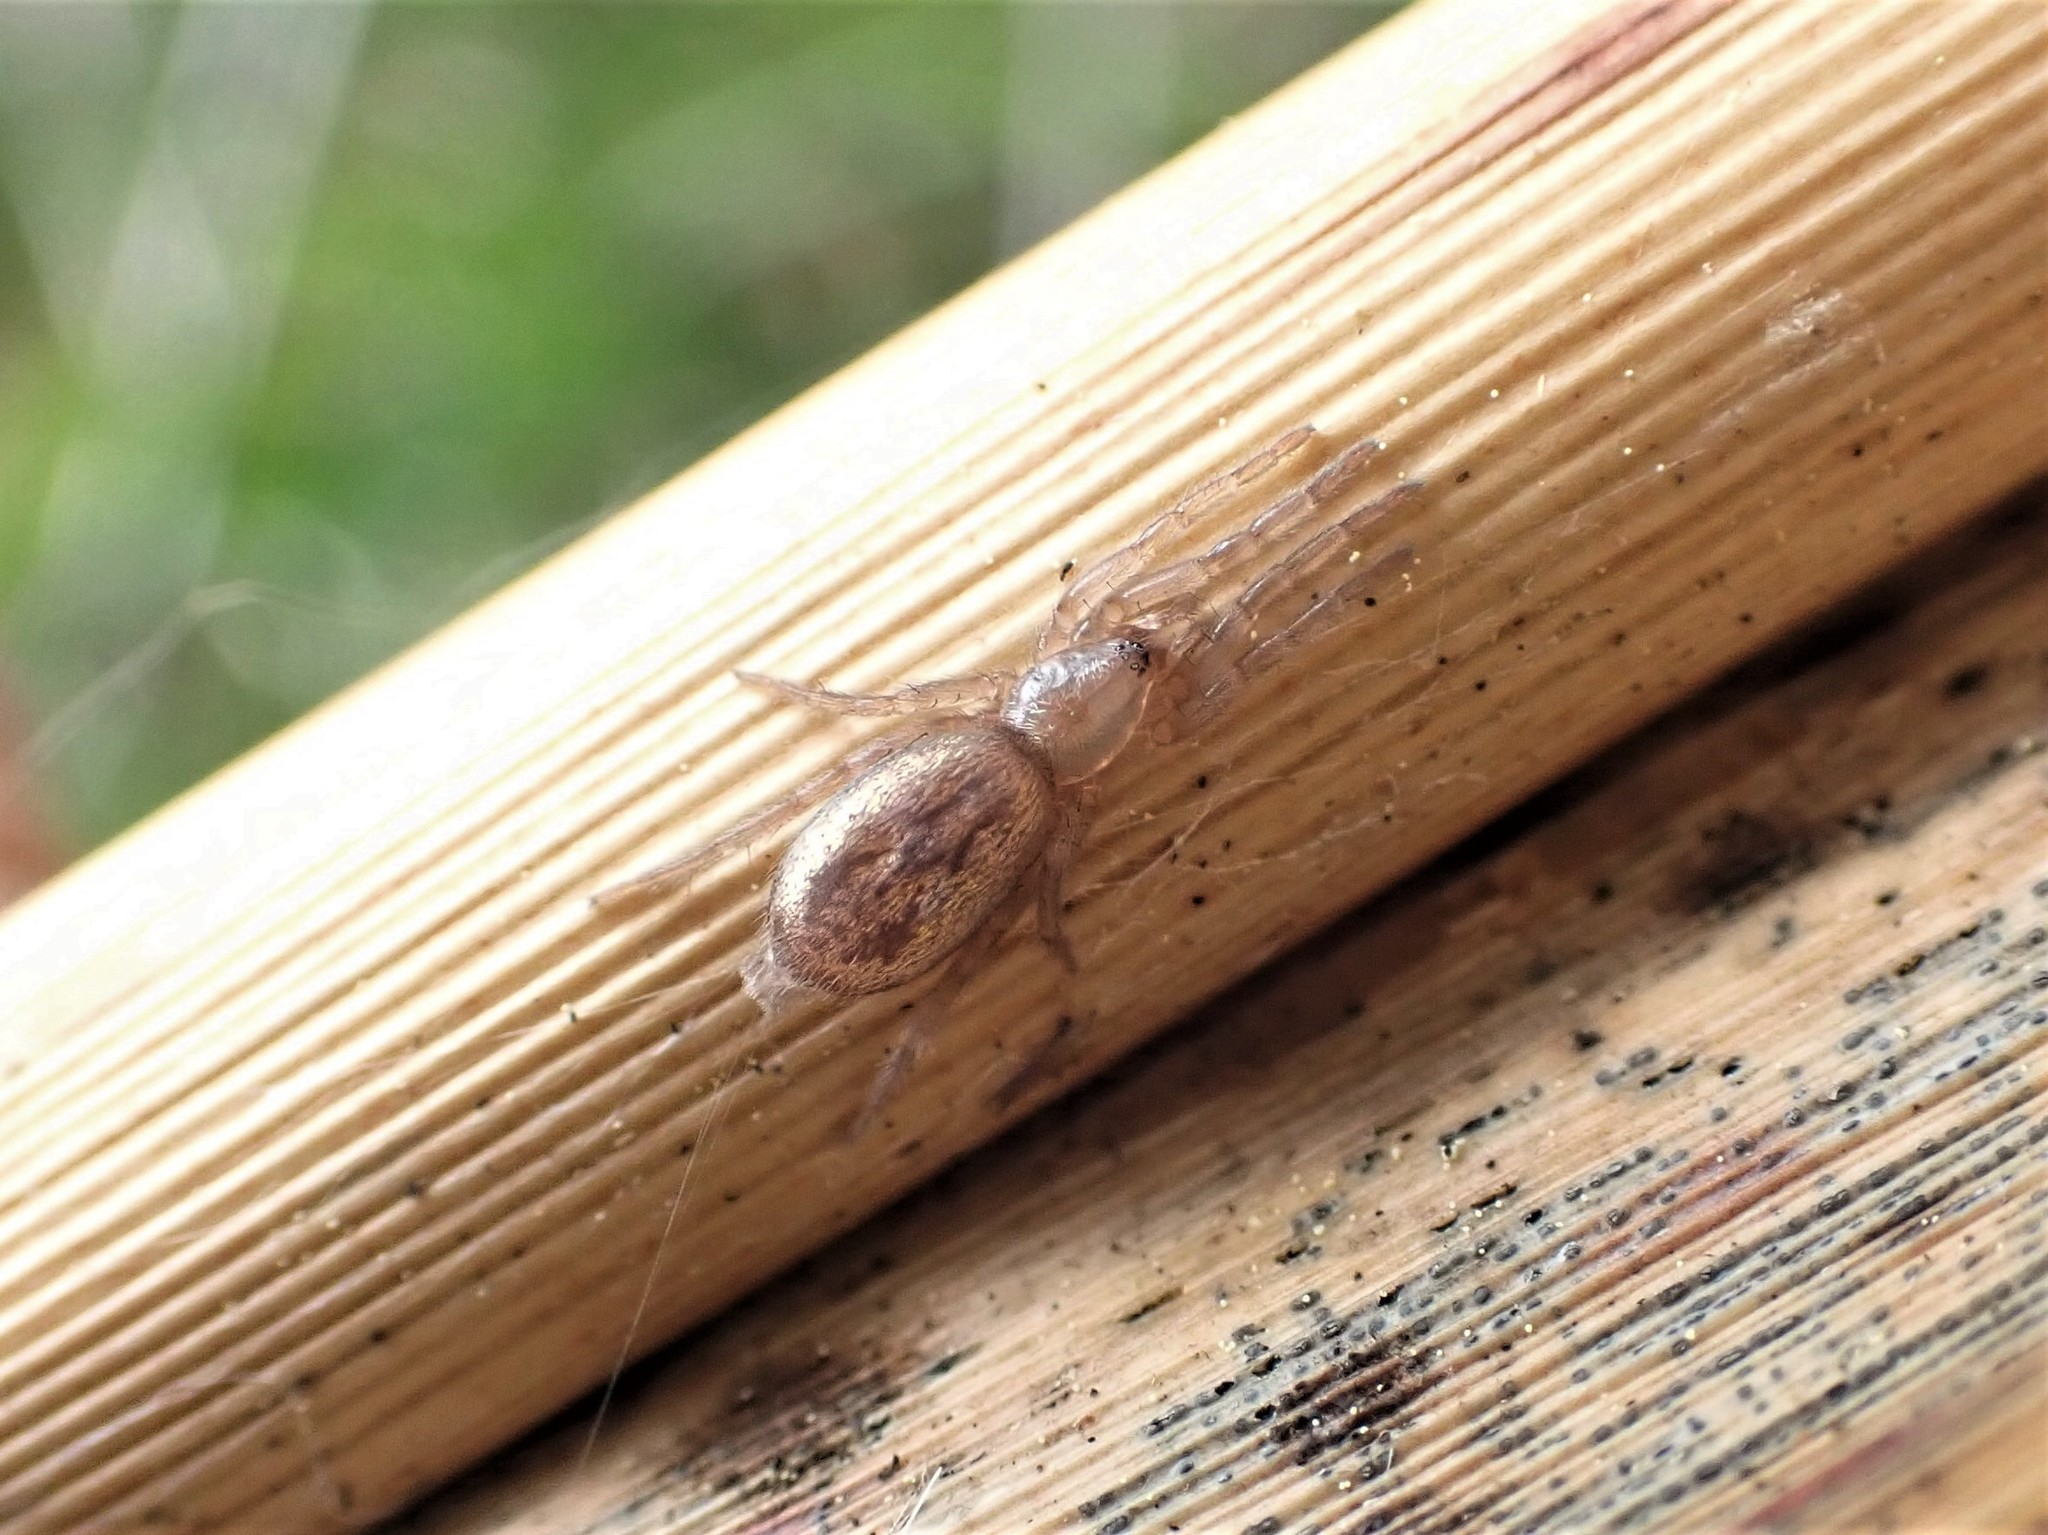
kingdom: Animalia
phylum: Arthropoda
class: Arachnida
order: Araneae
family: Gnaphosidae
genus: Scotophaeus
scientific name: Scotophaeus pretiosus
